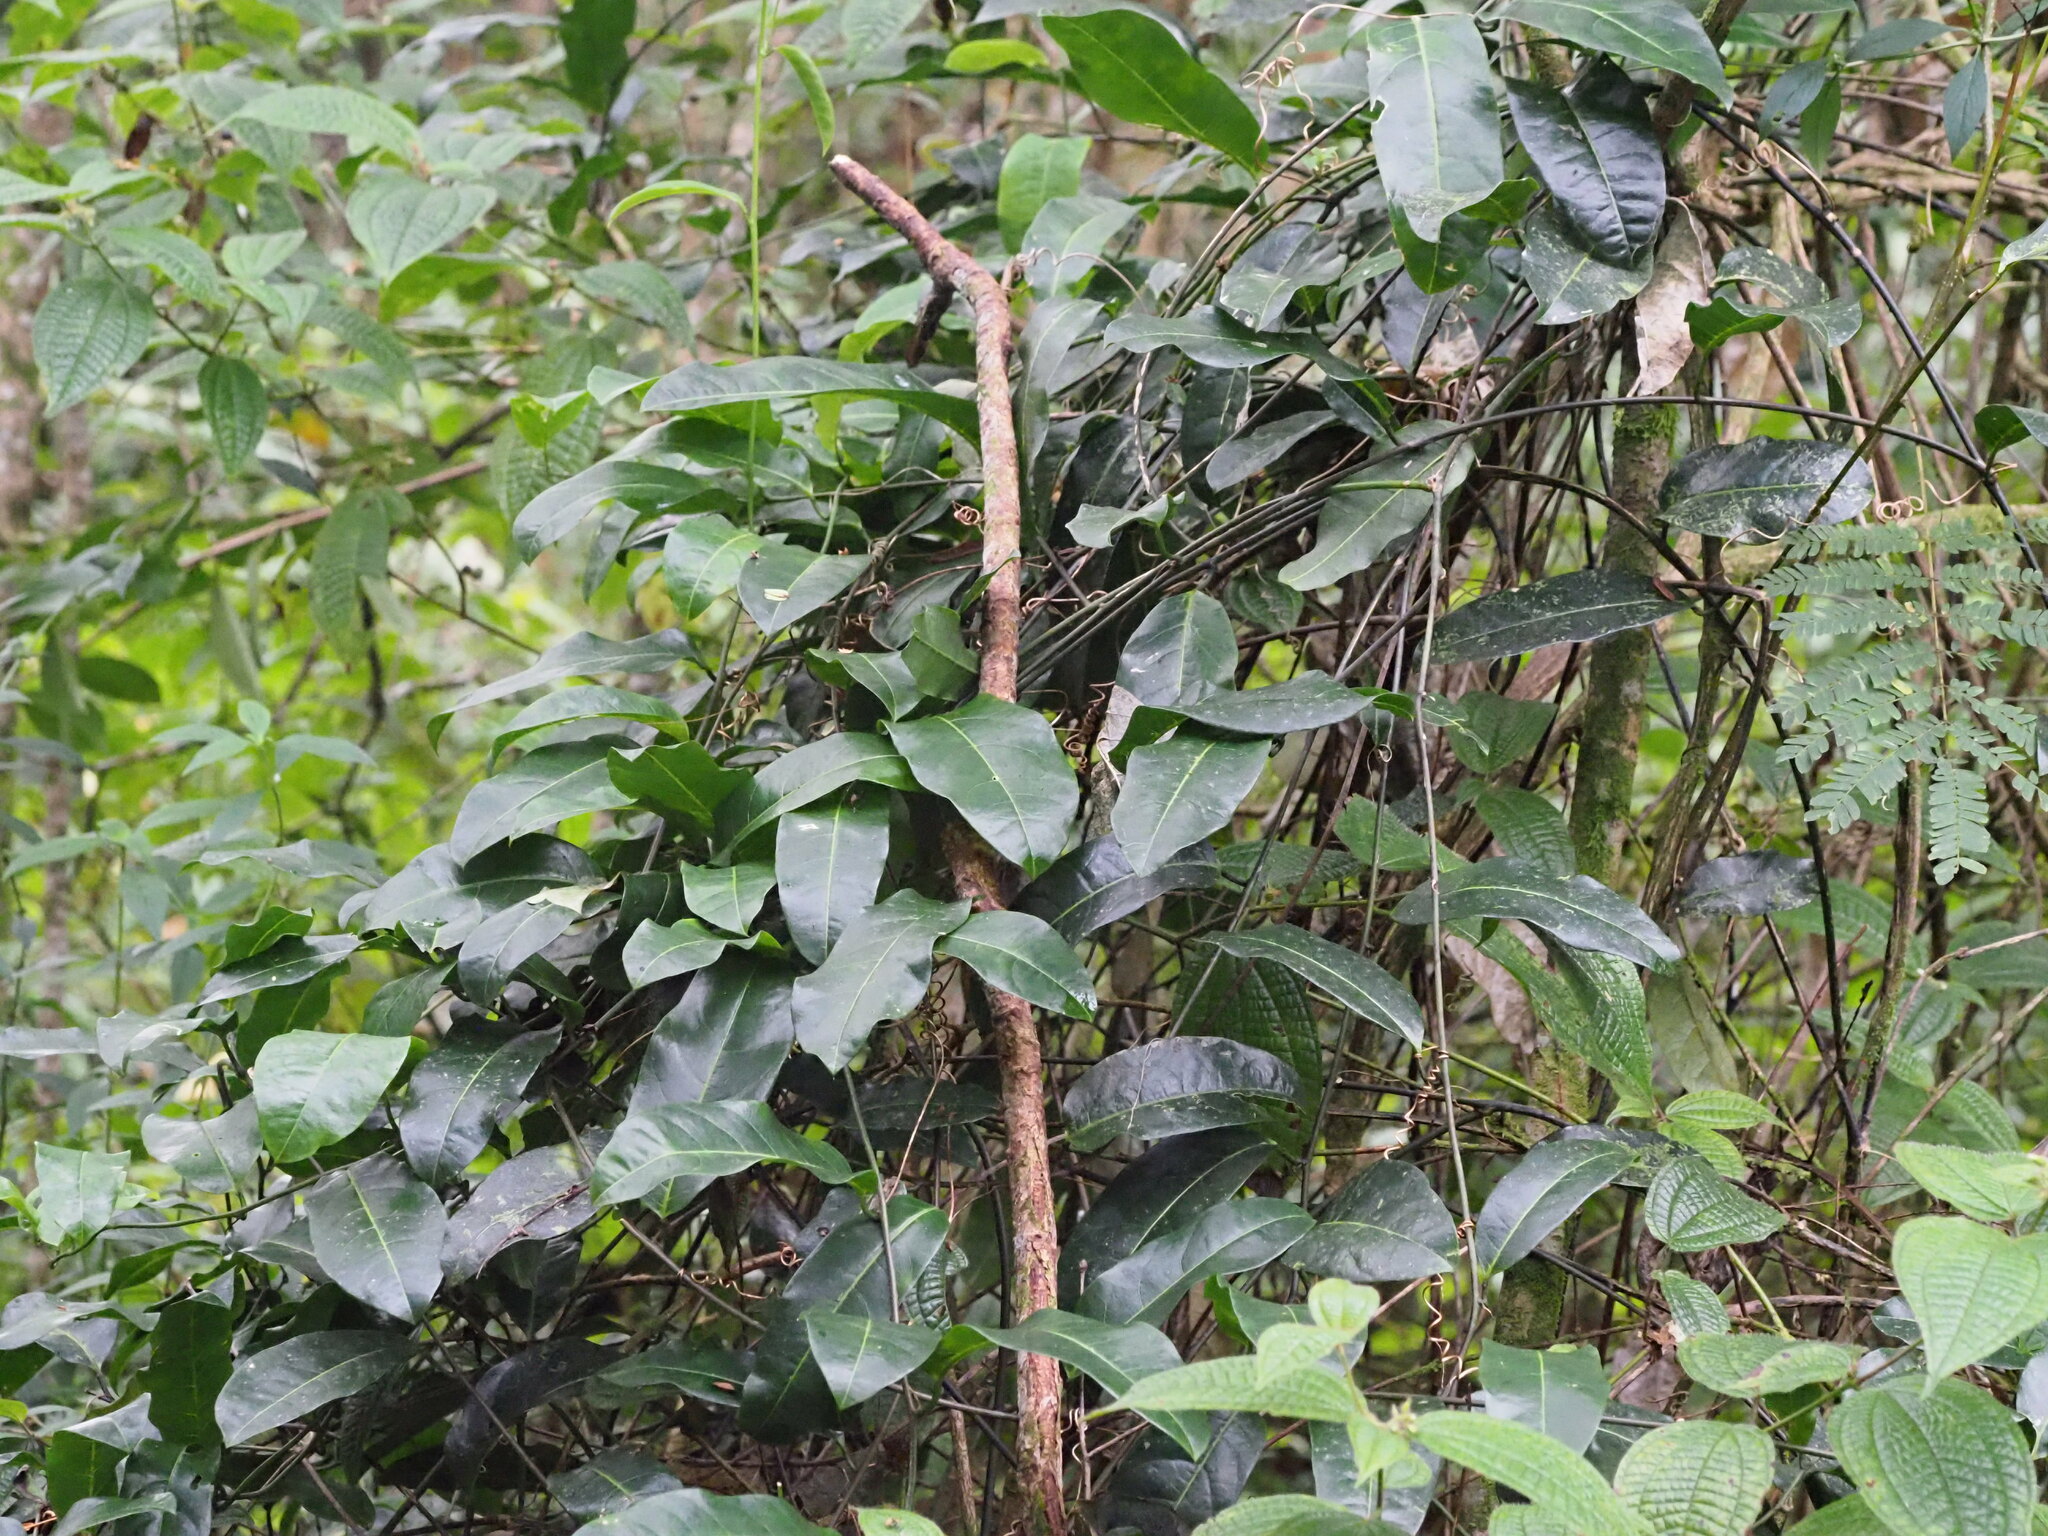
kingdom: Plantae
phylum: Tracheophyta
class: Magnoliopsida
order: Malpighiales
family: Passifloraceae
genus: Passiflora
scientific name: Passiflora laurifolia
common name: Bell apple
